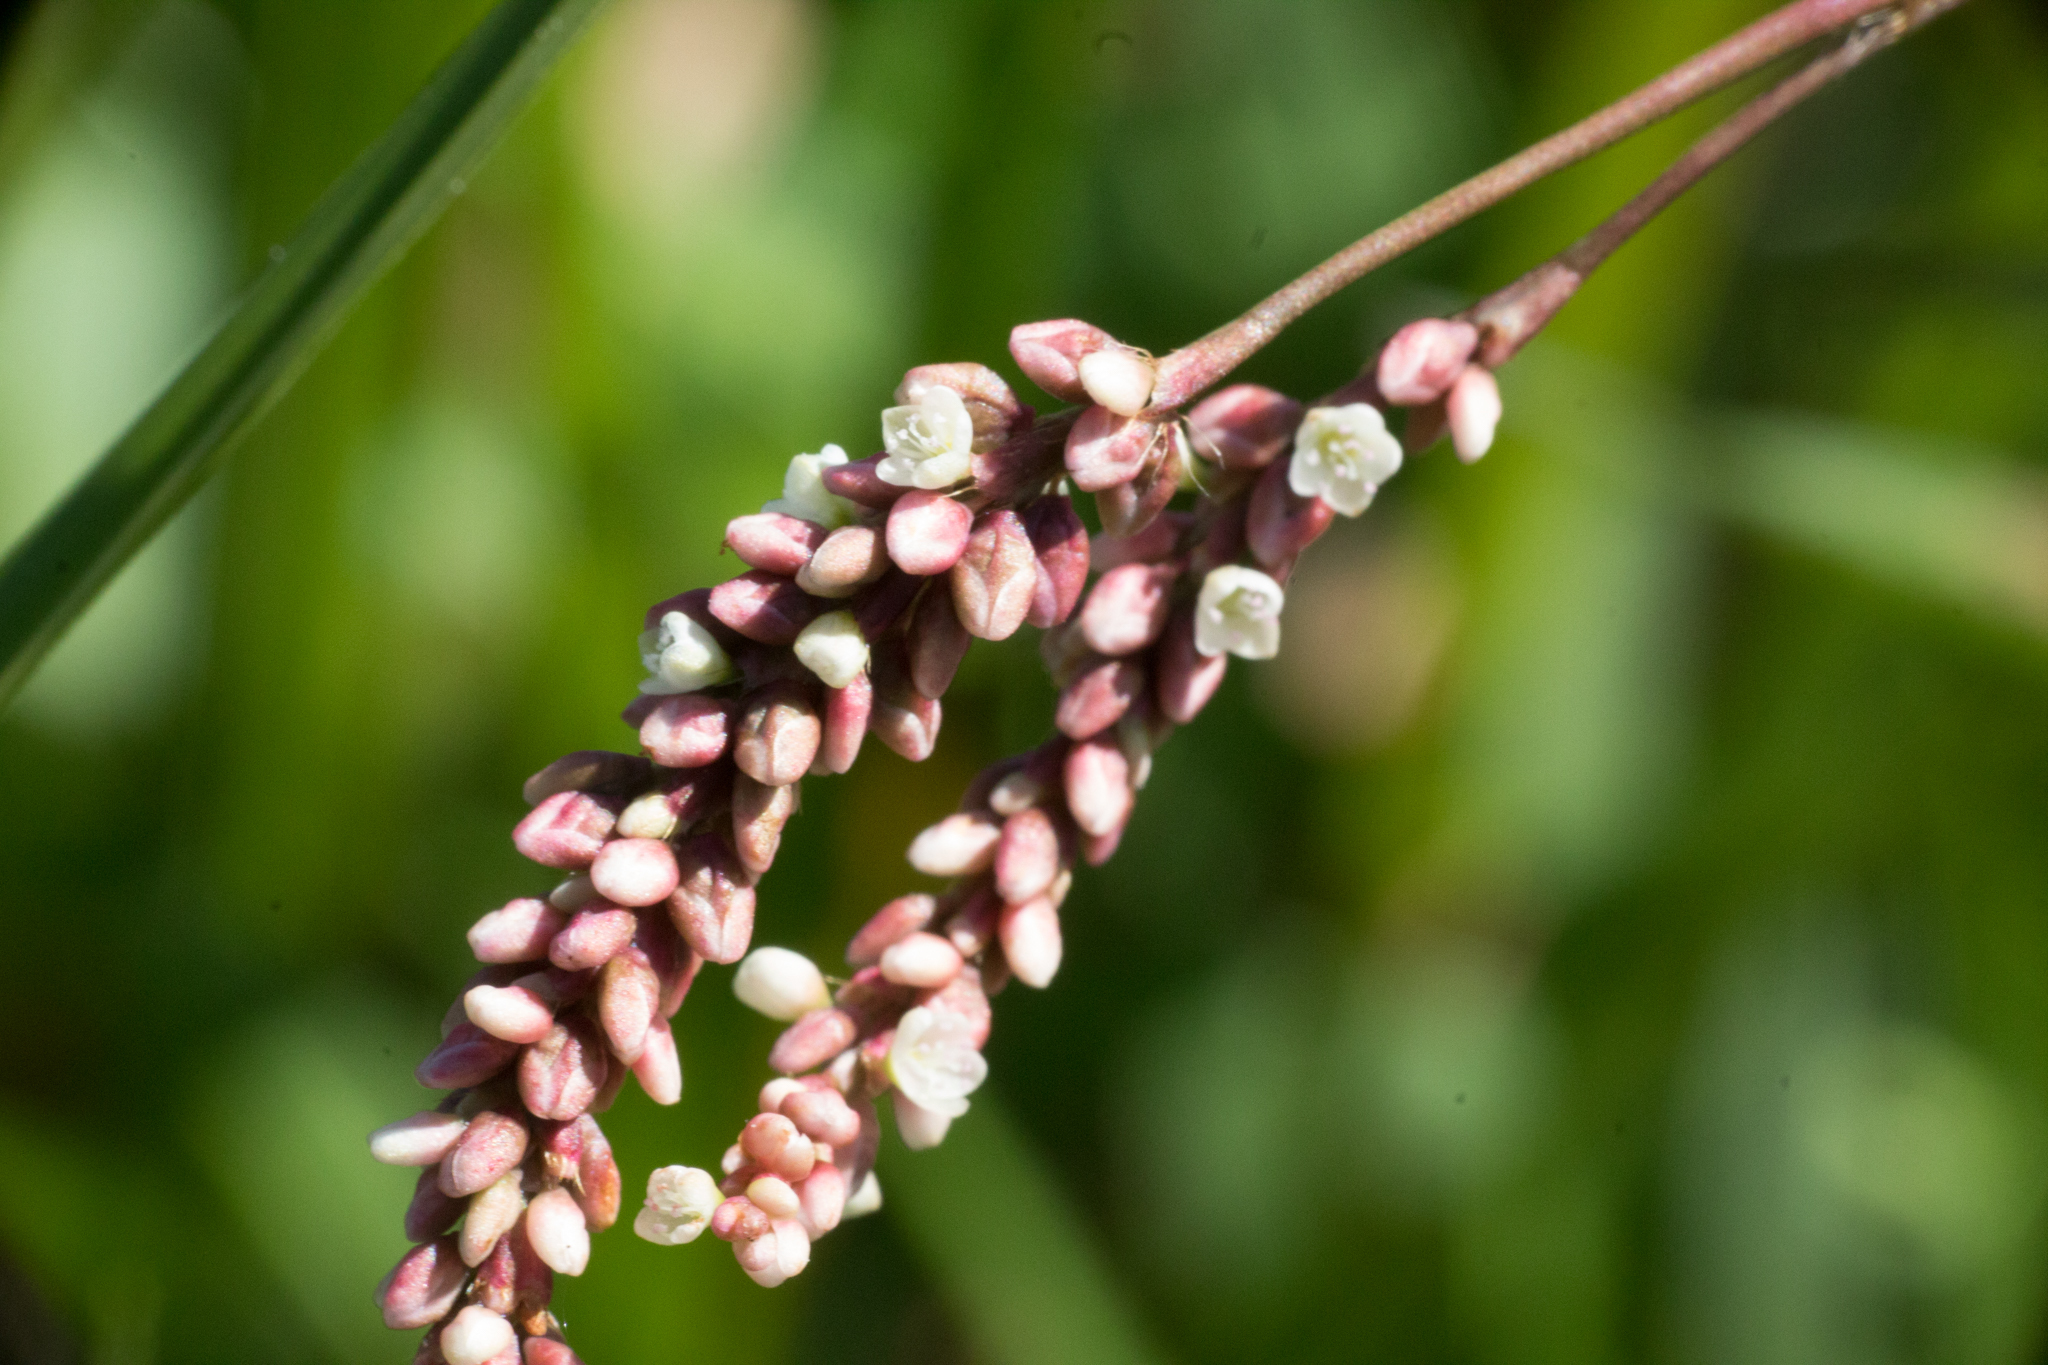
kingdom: Plantae
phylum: Tracheophyta
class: Magnoliopsida
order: Caryophyllales
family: Polygonaceae
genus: Persicaria
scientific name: Persicaria maculosa
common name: Redshank
